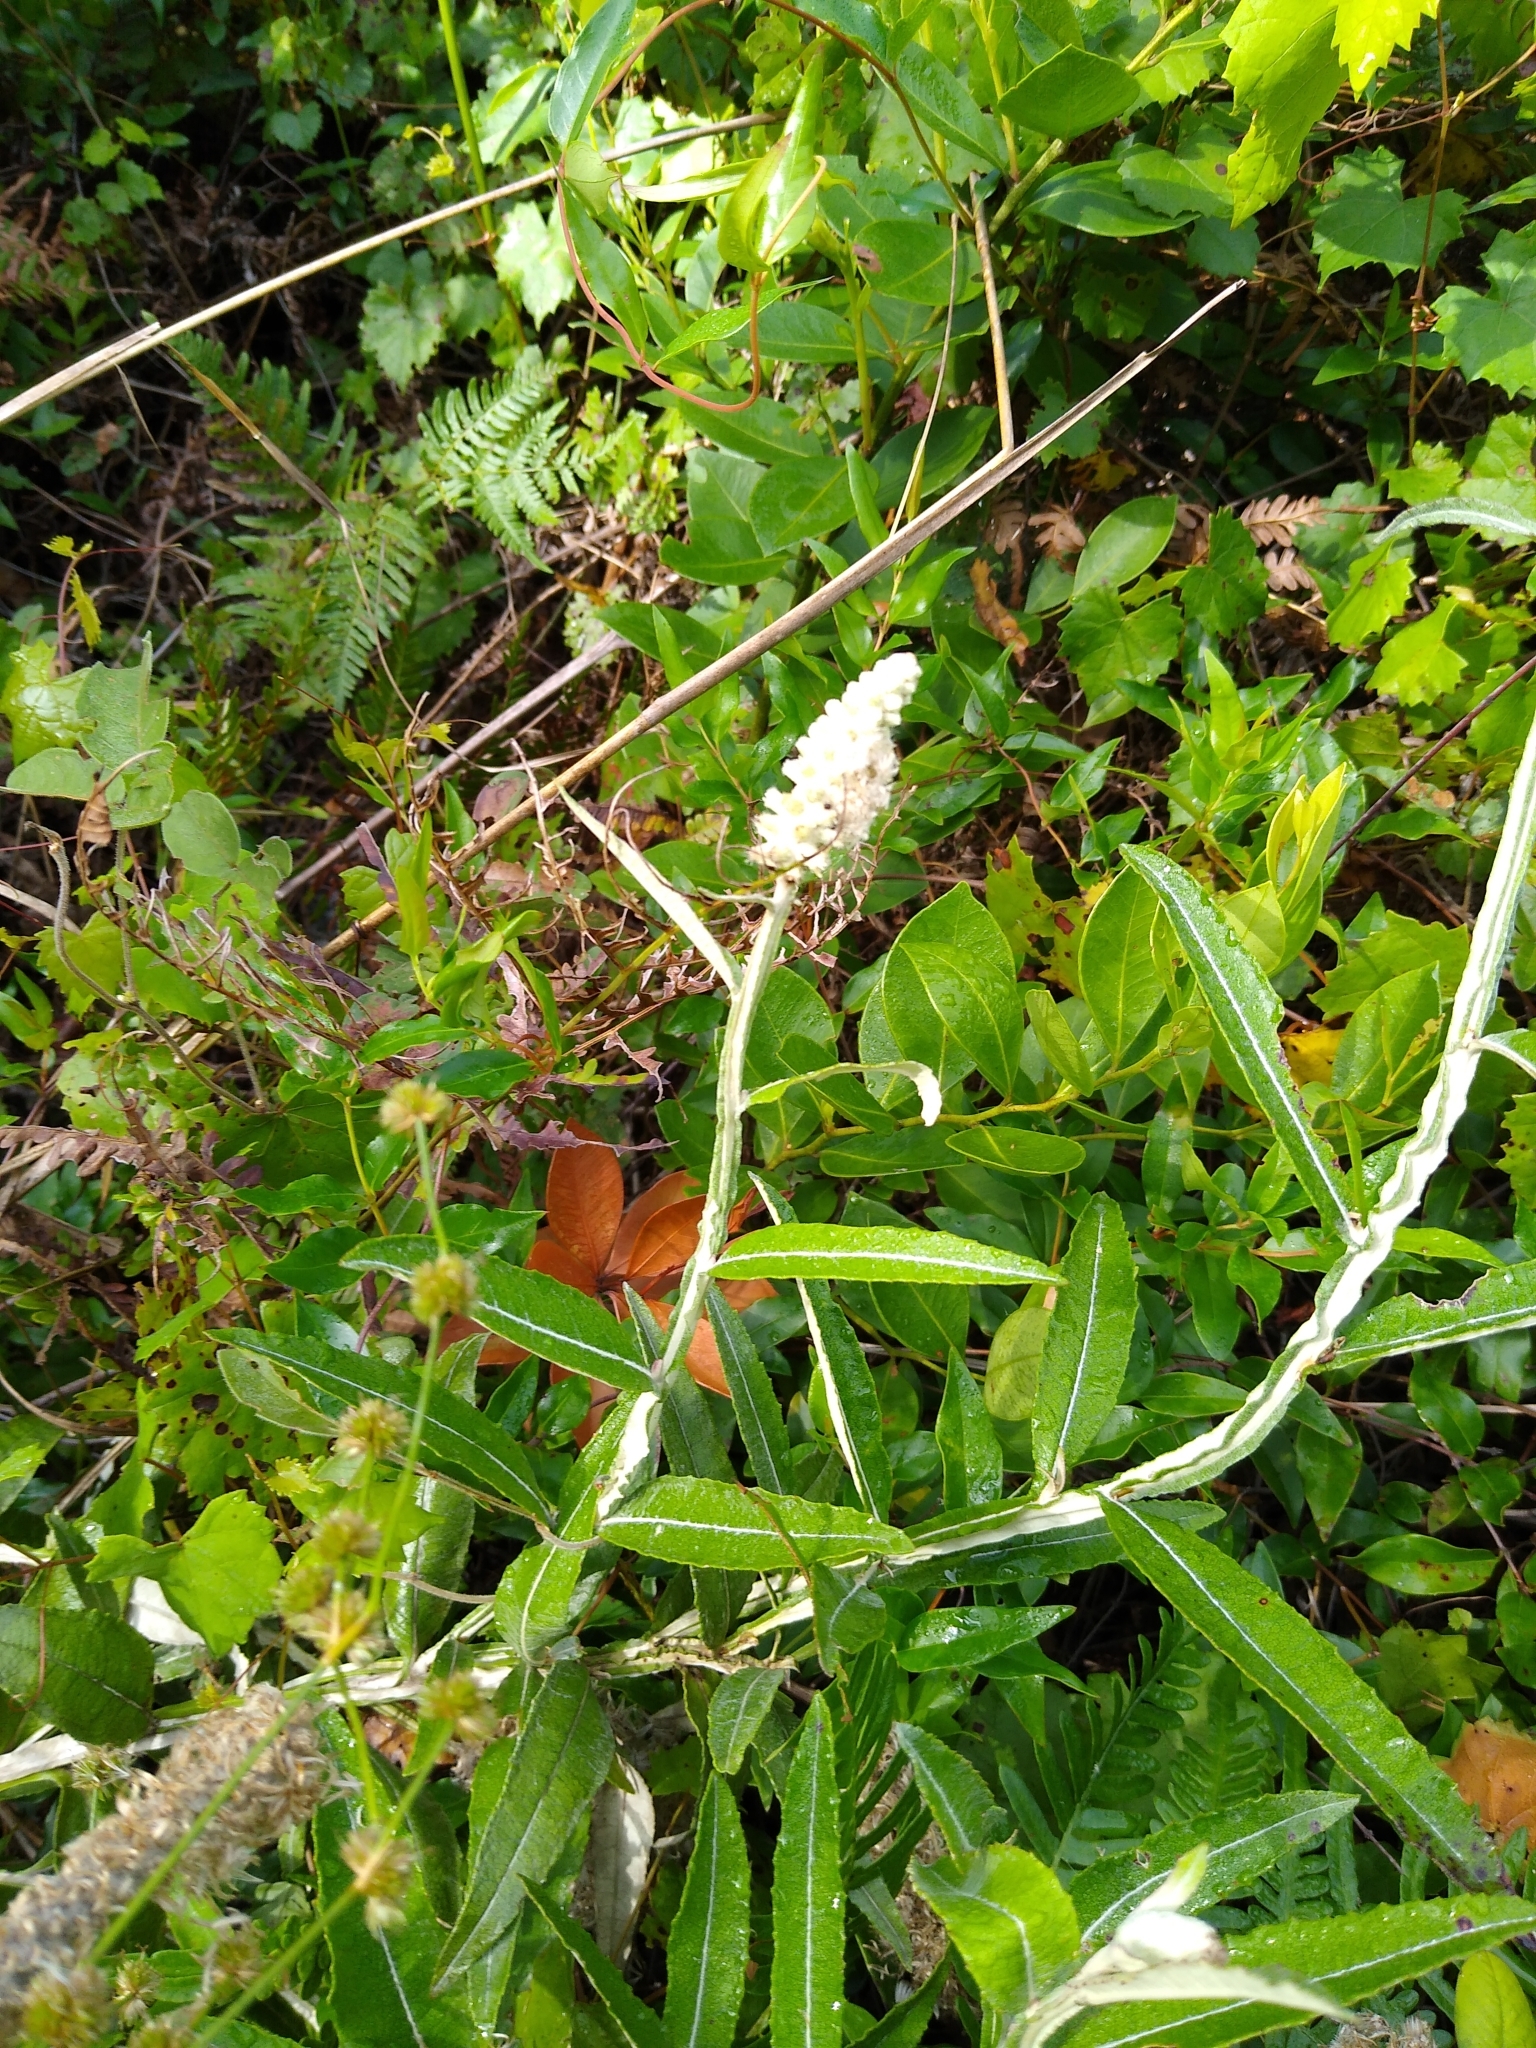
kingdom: Plantae
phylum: Tracheophyta
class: Magnoliopsida
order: Asterales
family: Asteraceae
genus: Pterocaulon
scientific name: Pterocaulon pycnostachyum
